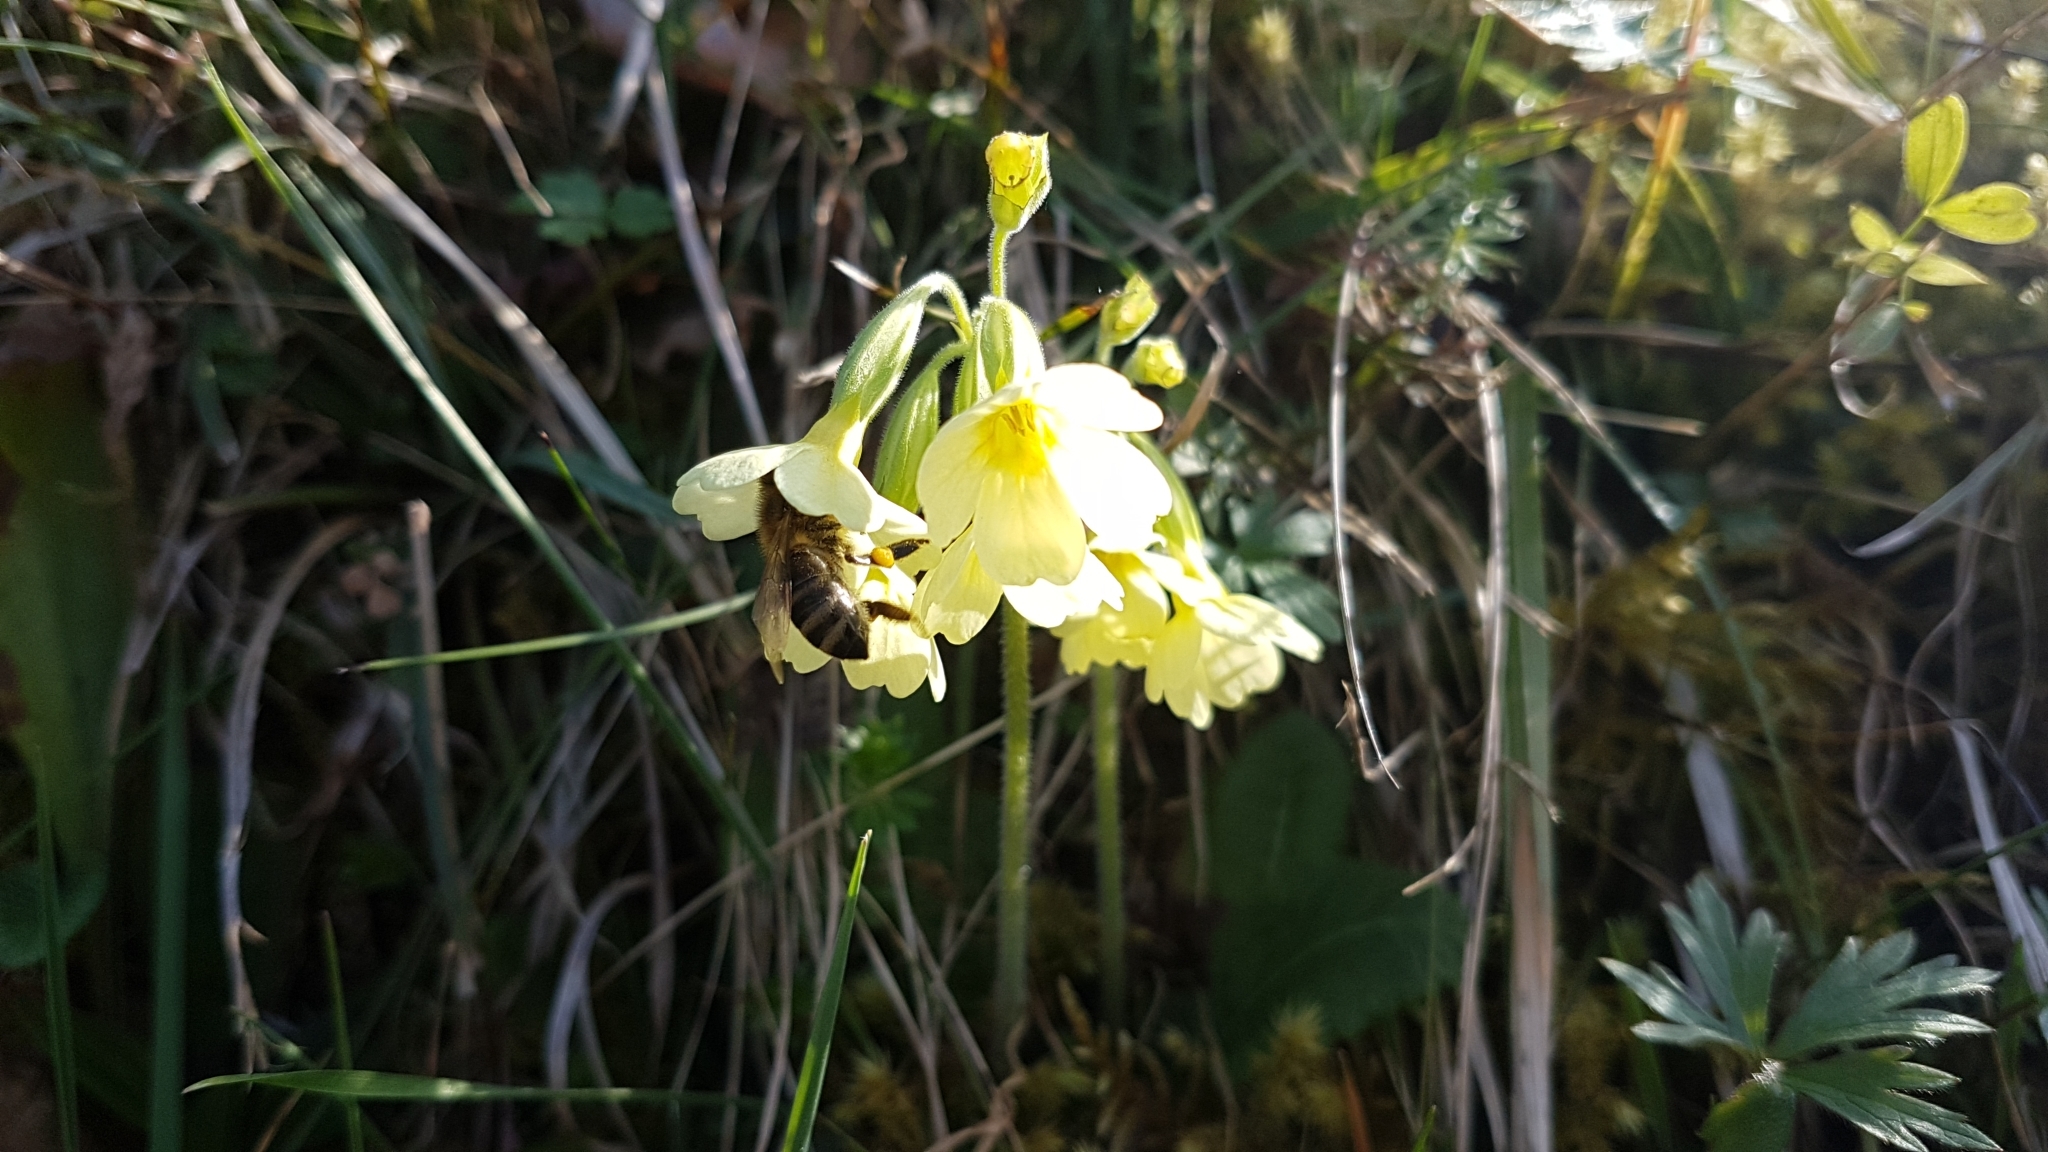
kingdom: Plantae
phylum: Tracheophyta
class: Magnoliopsida
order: Ericales
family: Primulaceae
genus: Primula
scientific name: Primula elatior
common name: Oxlip
